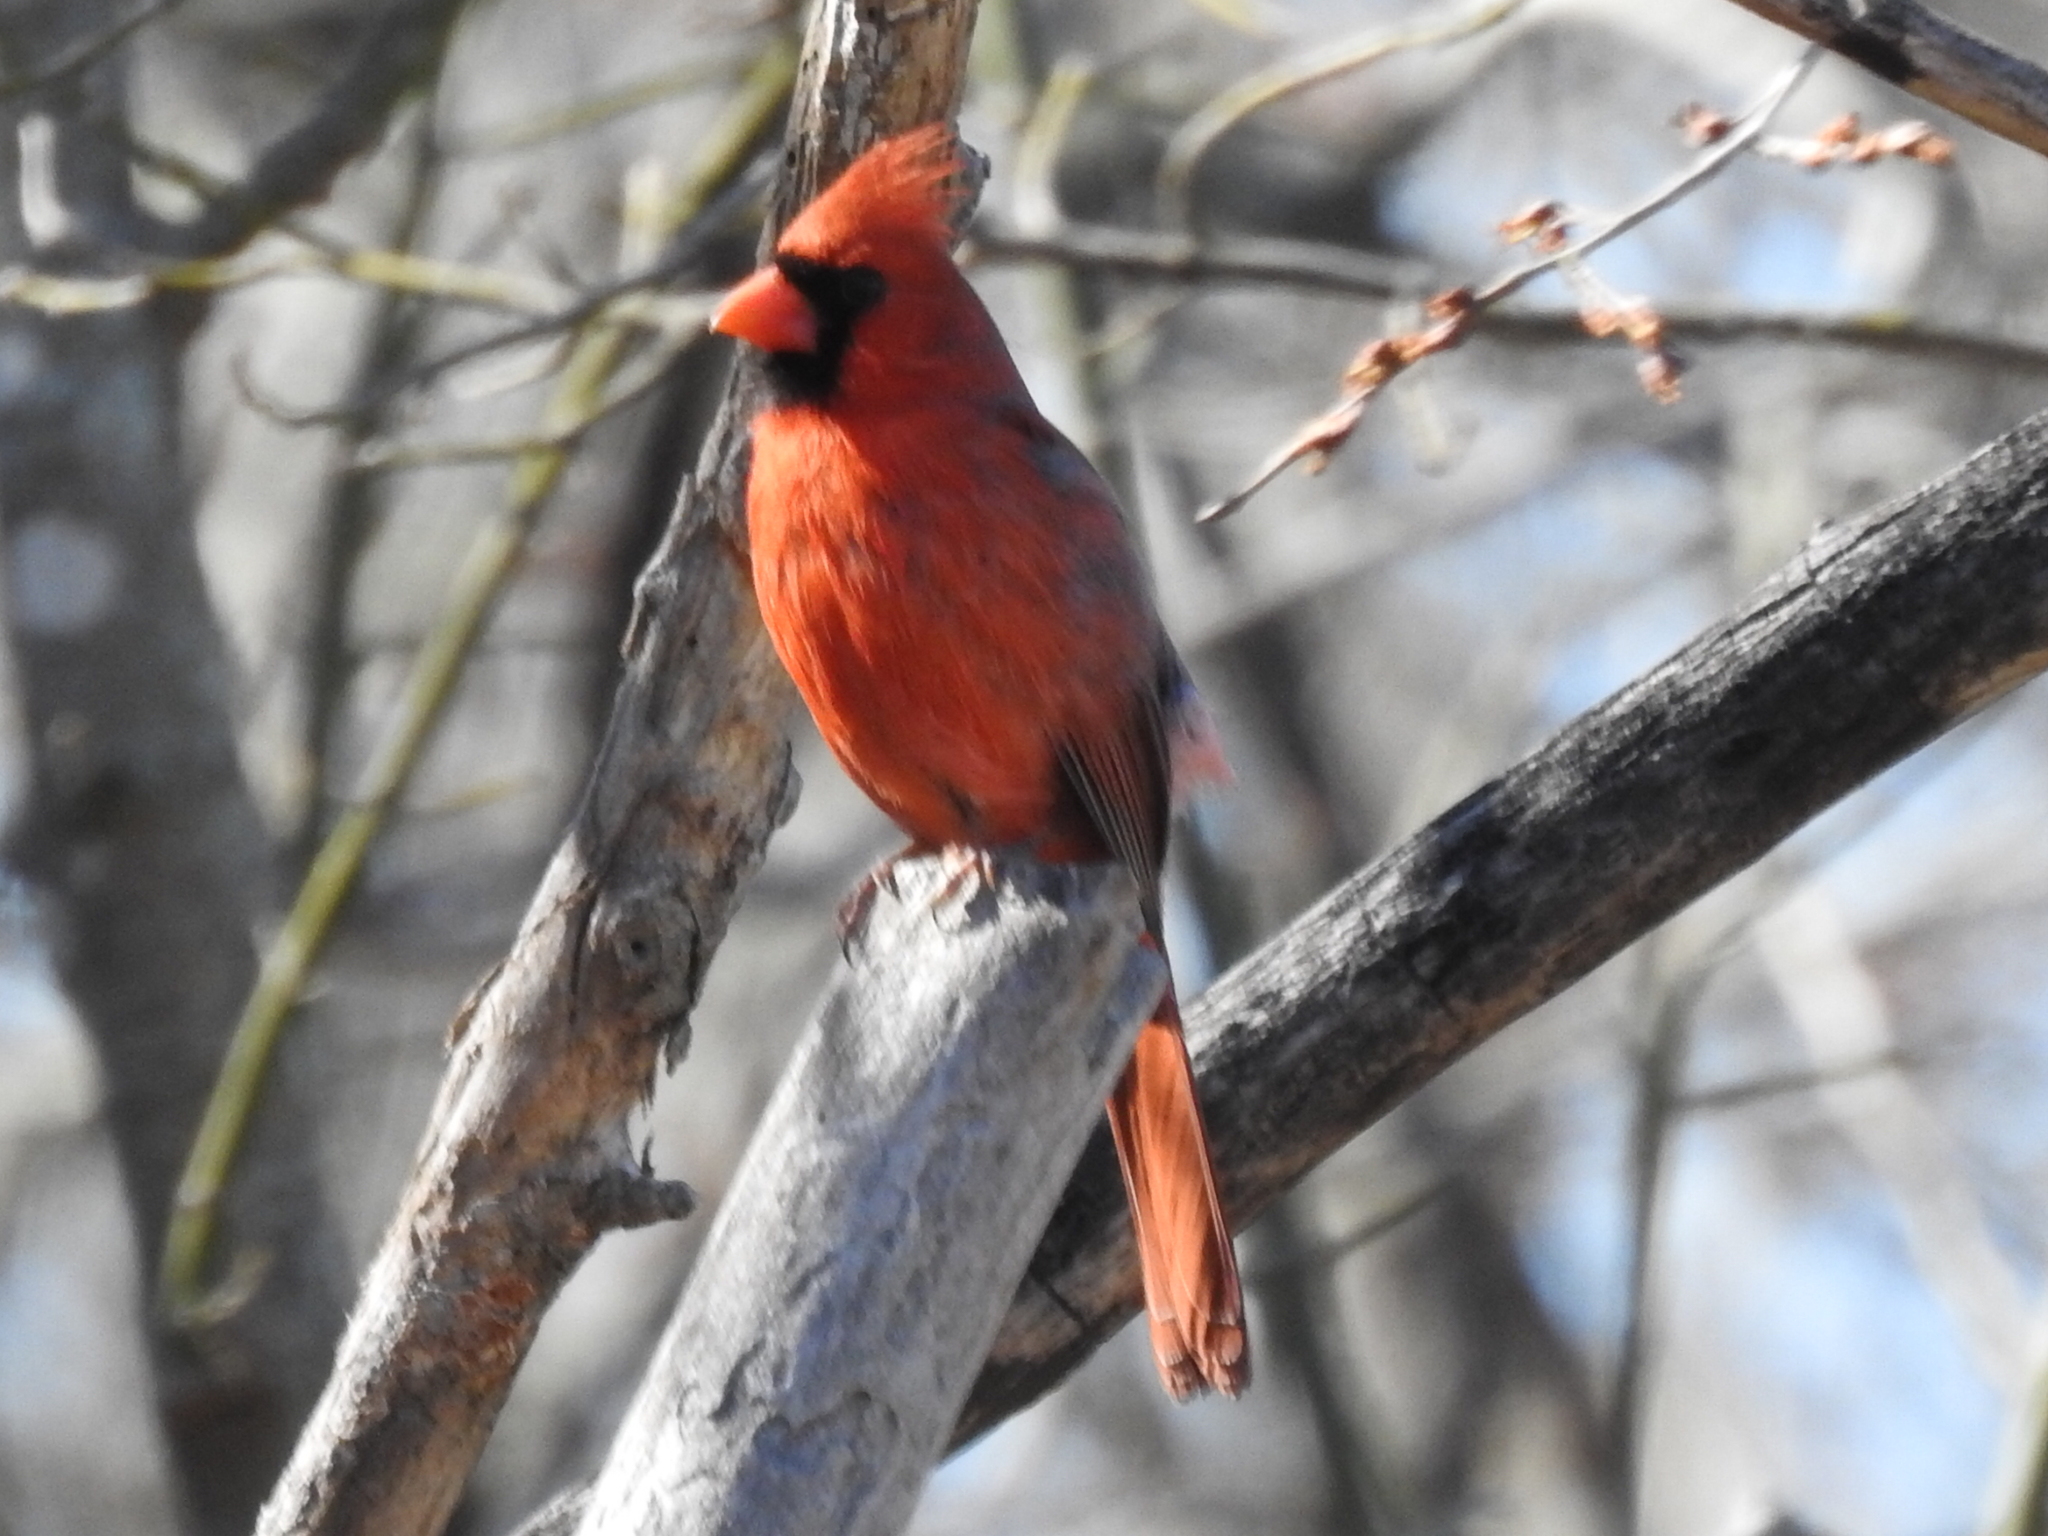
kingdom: Animalia
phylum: Chordata
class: Aves
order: Passeriformes
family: Cardinalidae
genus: Cardinalis
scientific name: Cardinalis cardinalis
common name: Northern cardinal
